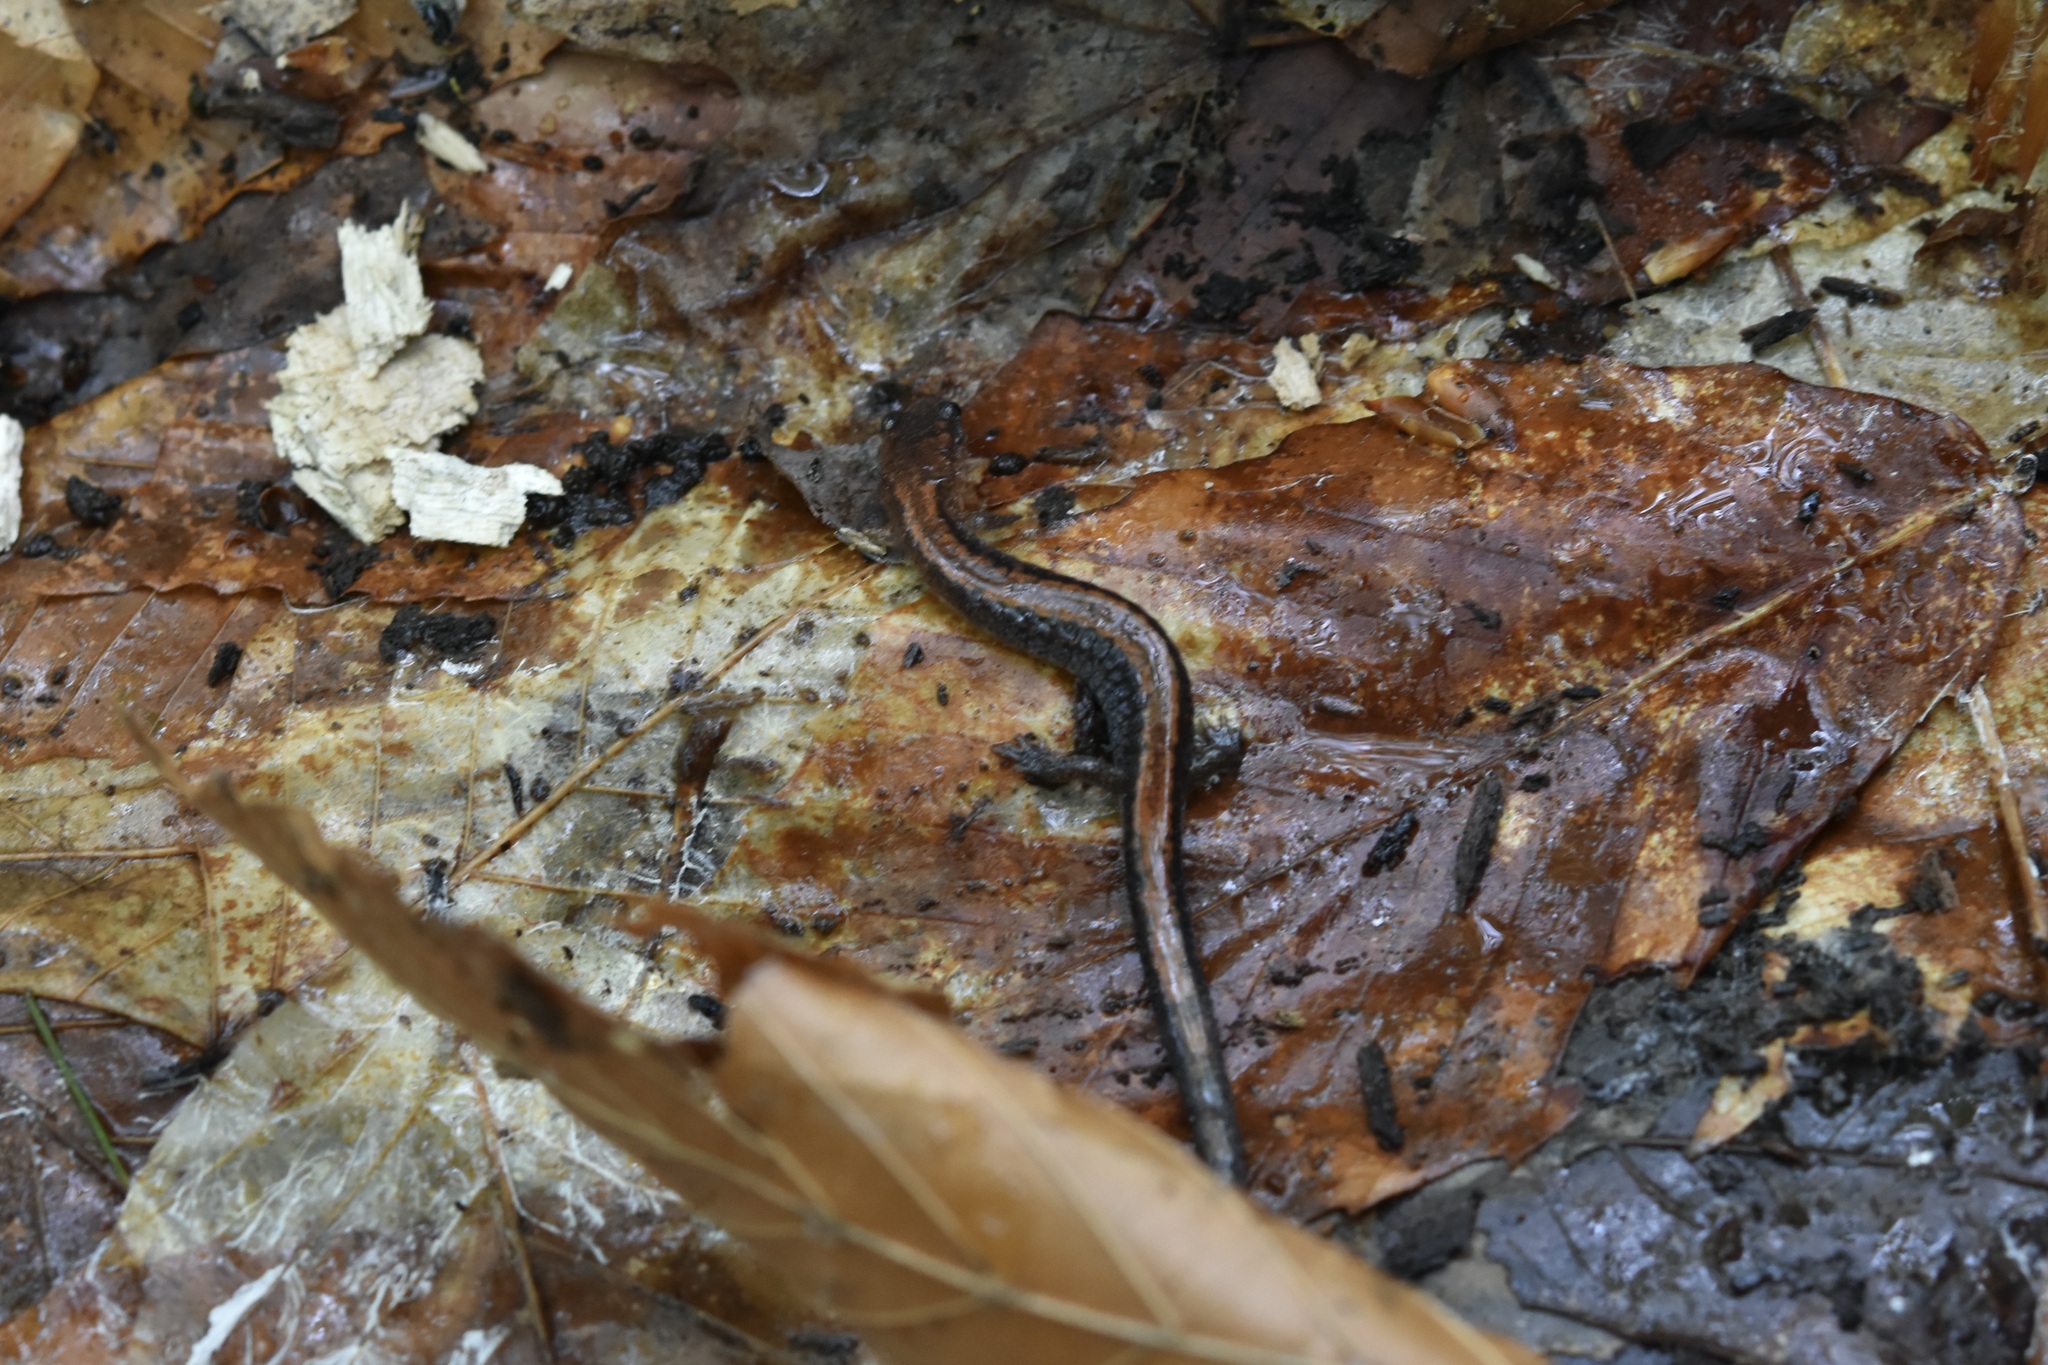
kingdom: Animalia
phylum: Chordata
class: Amphibia
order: Caudata
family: Plethodontidae
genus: Plethodon
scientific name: Plethodon cinereus
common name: Redback salamander
